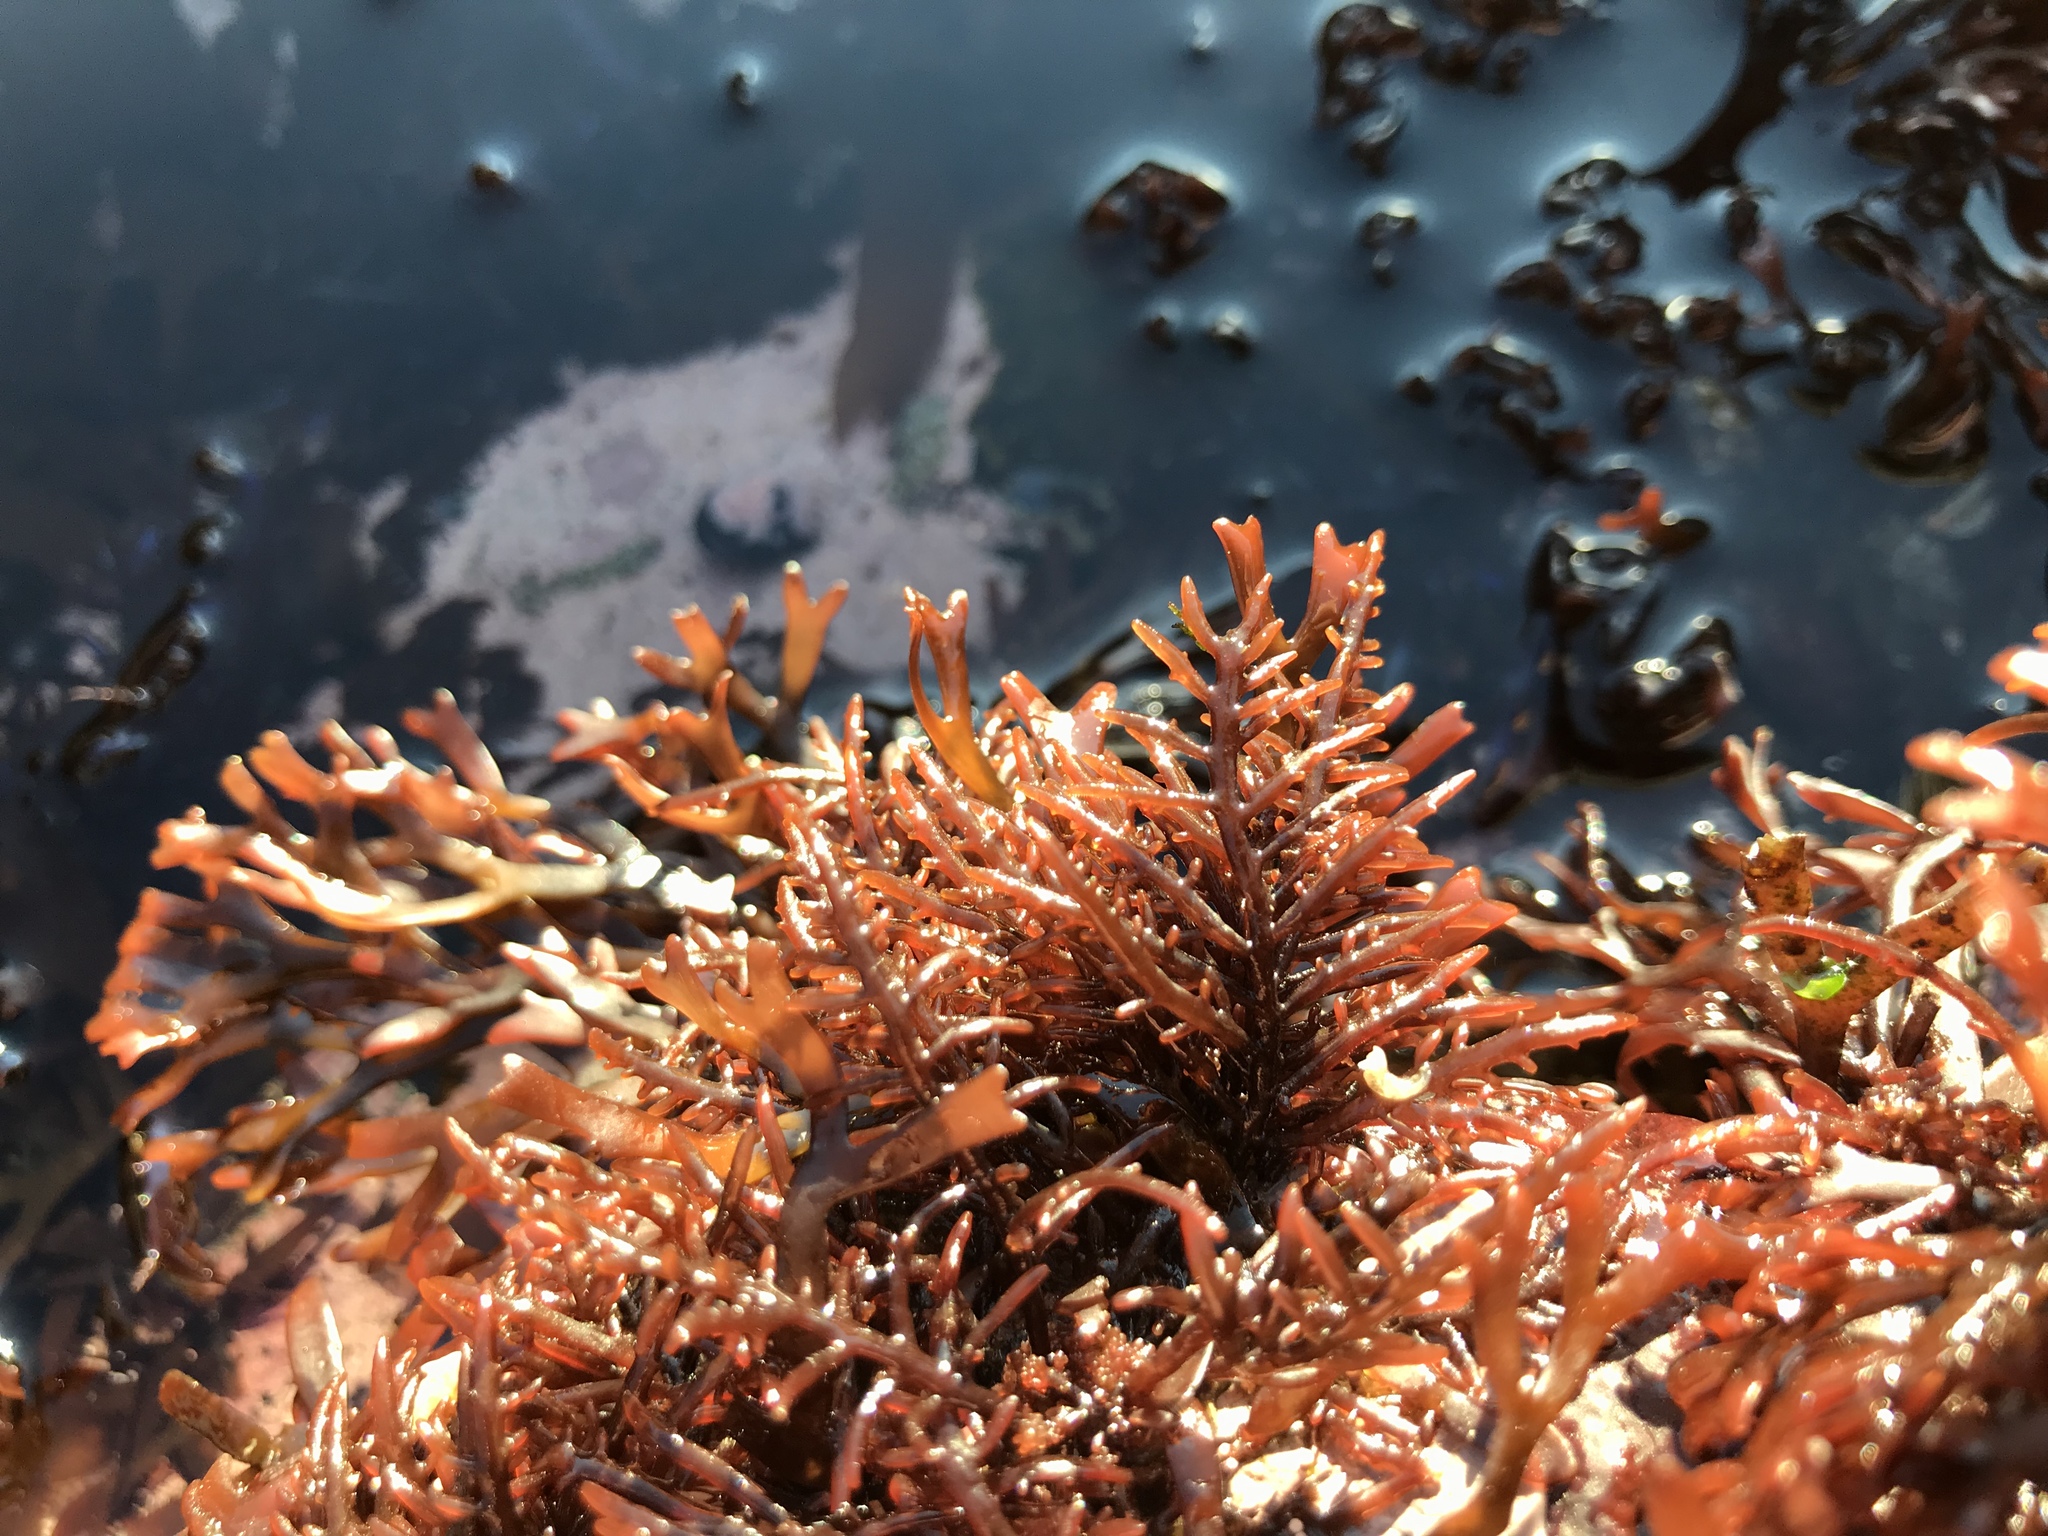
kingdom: Plantae
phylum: Rhodophyta
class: Florideophyceae
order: Ceramiales
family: Rhodomelaceae
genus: Chondria
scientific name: Chondria
